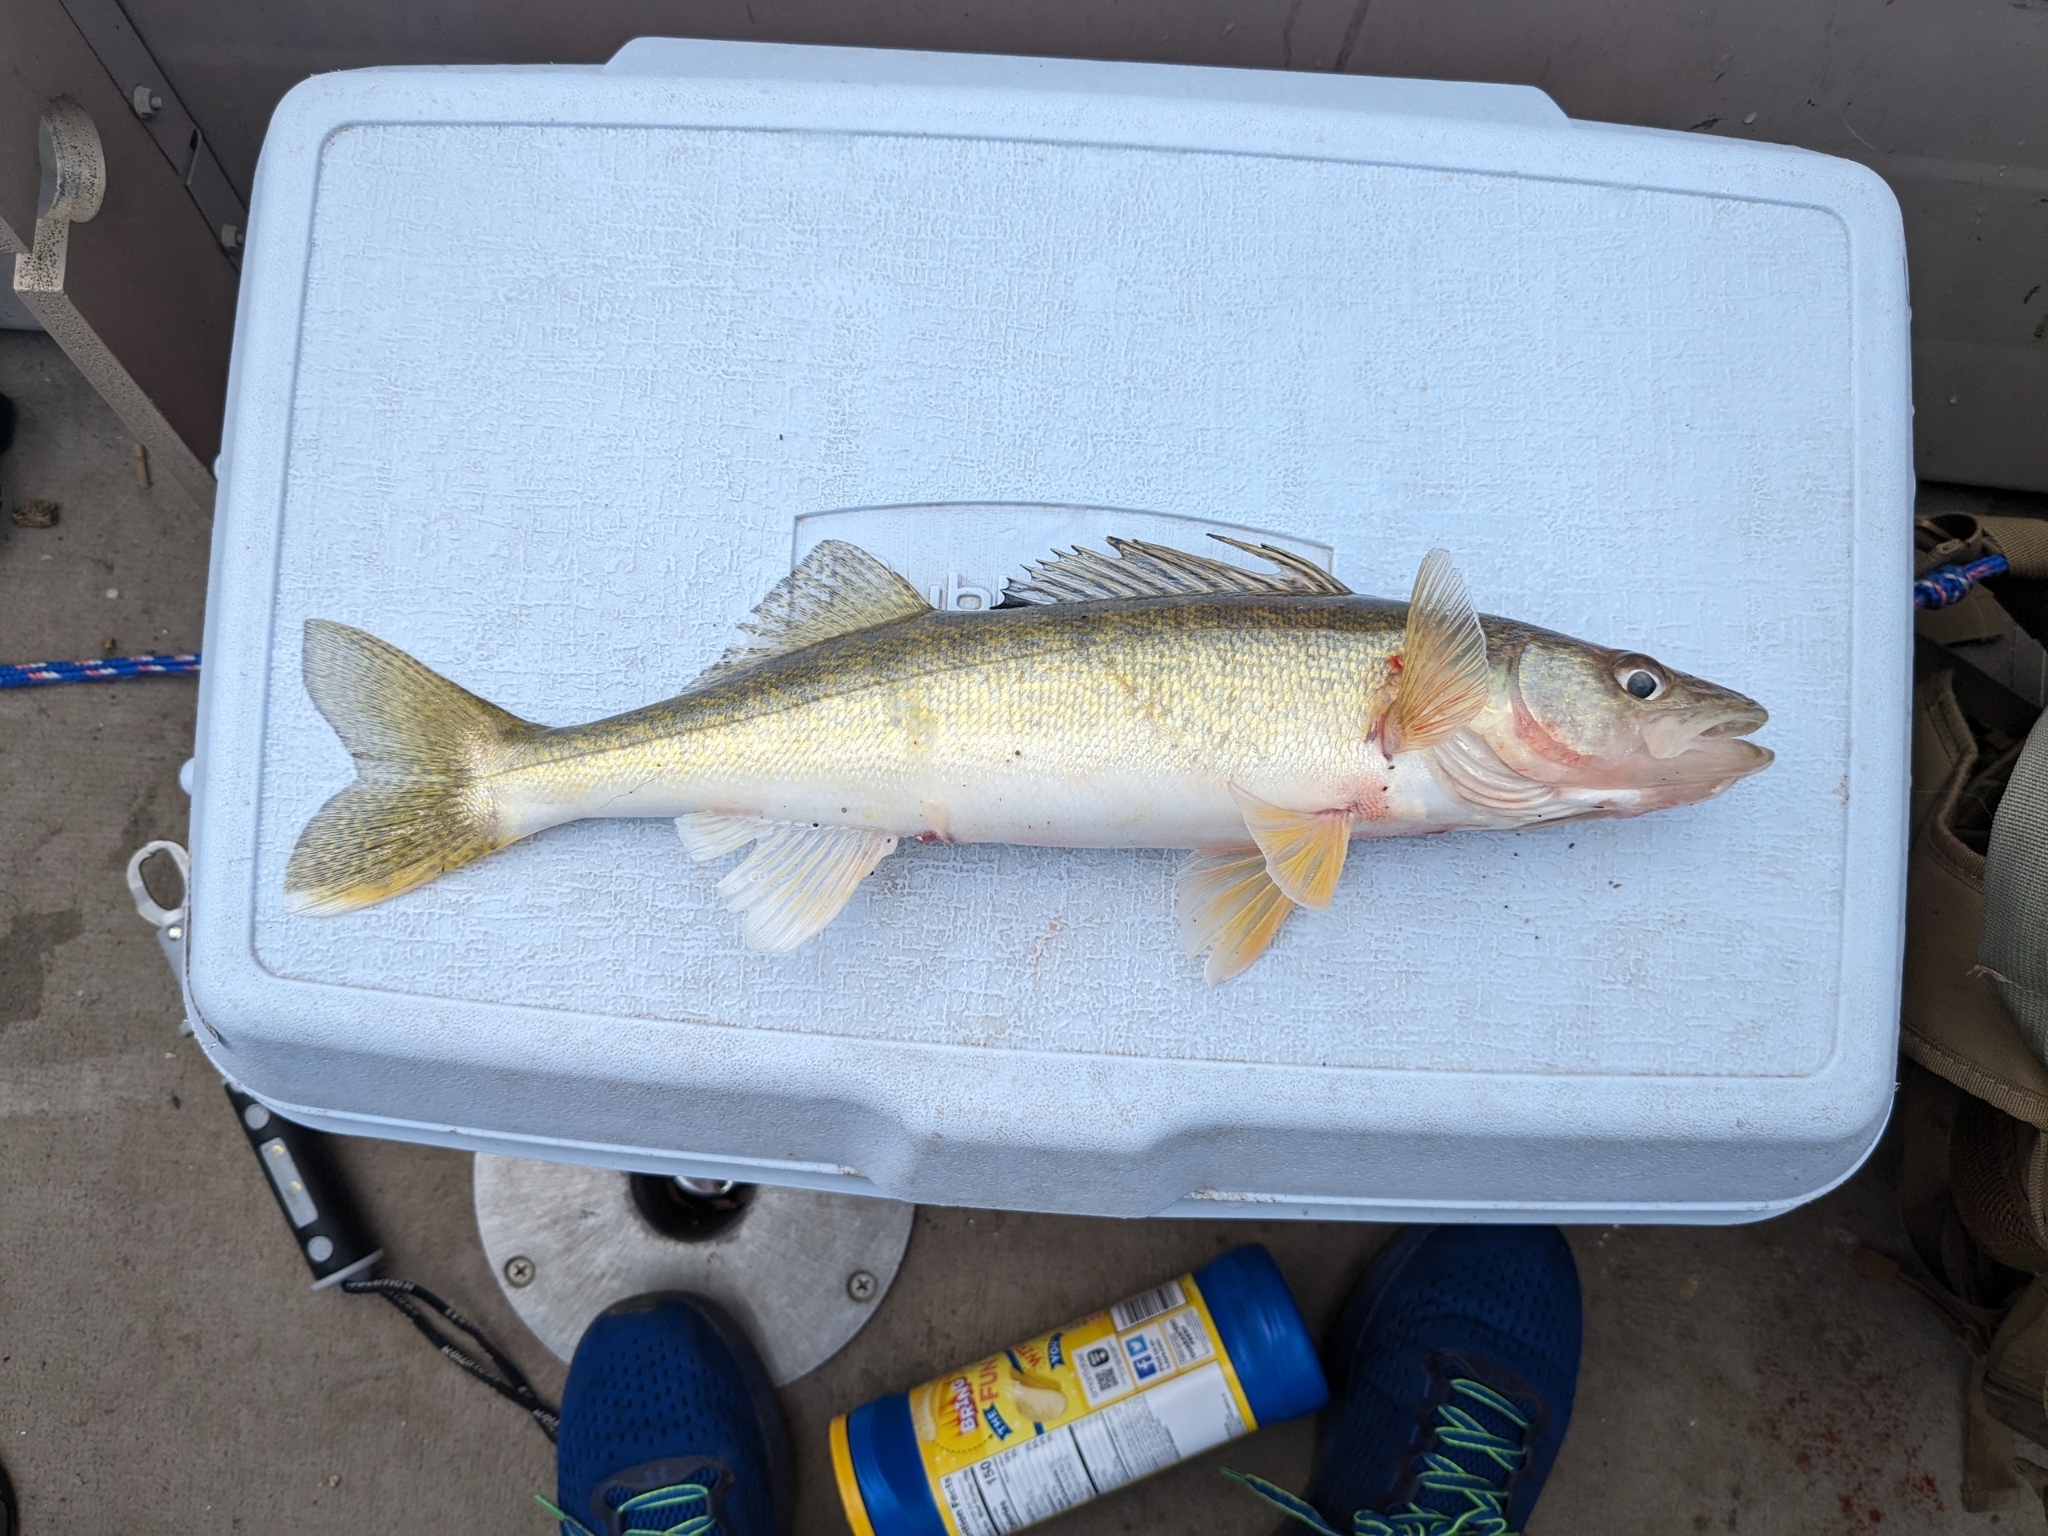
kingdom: Animalia
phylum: Chordata
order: Perciformes
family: Percidae
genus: Sander
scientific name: Sander vitreus
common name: Walleye
